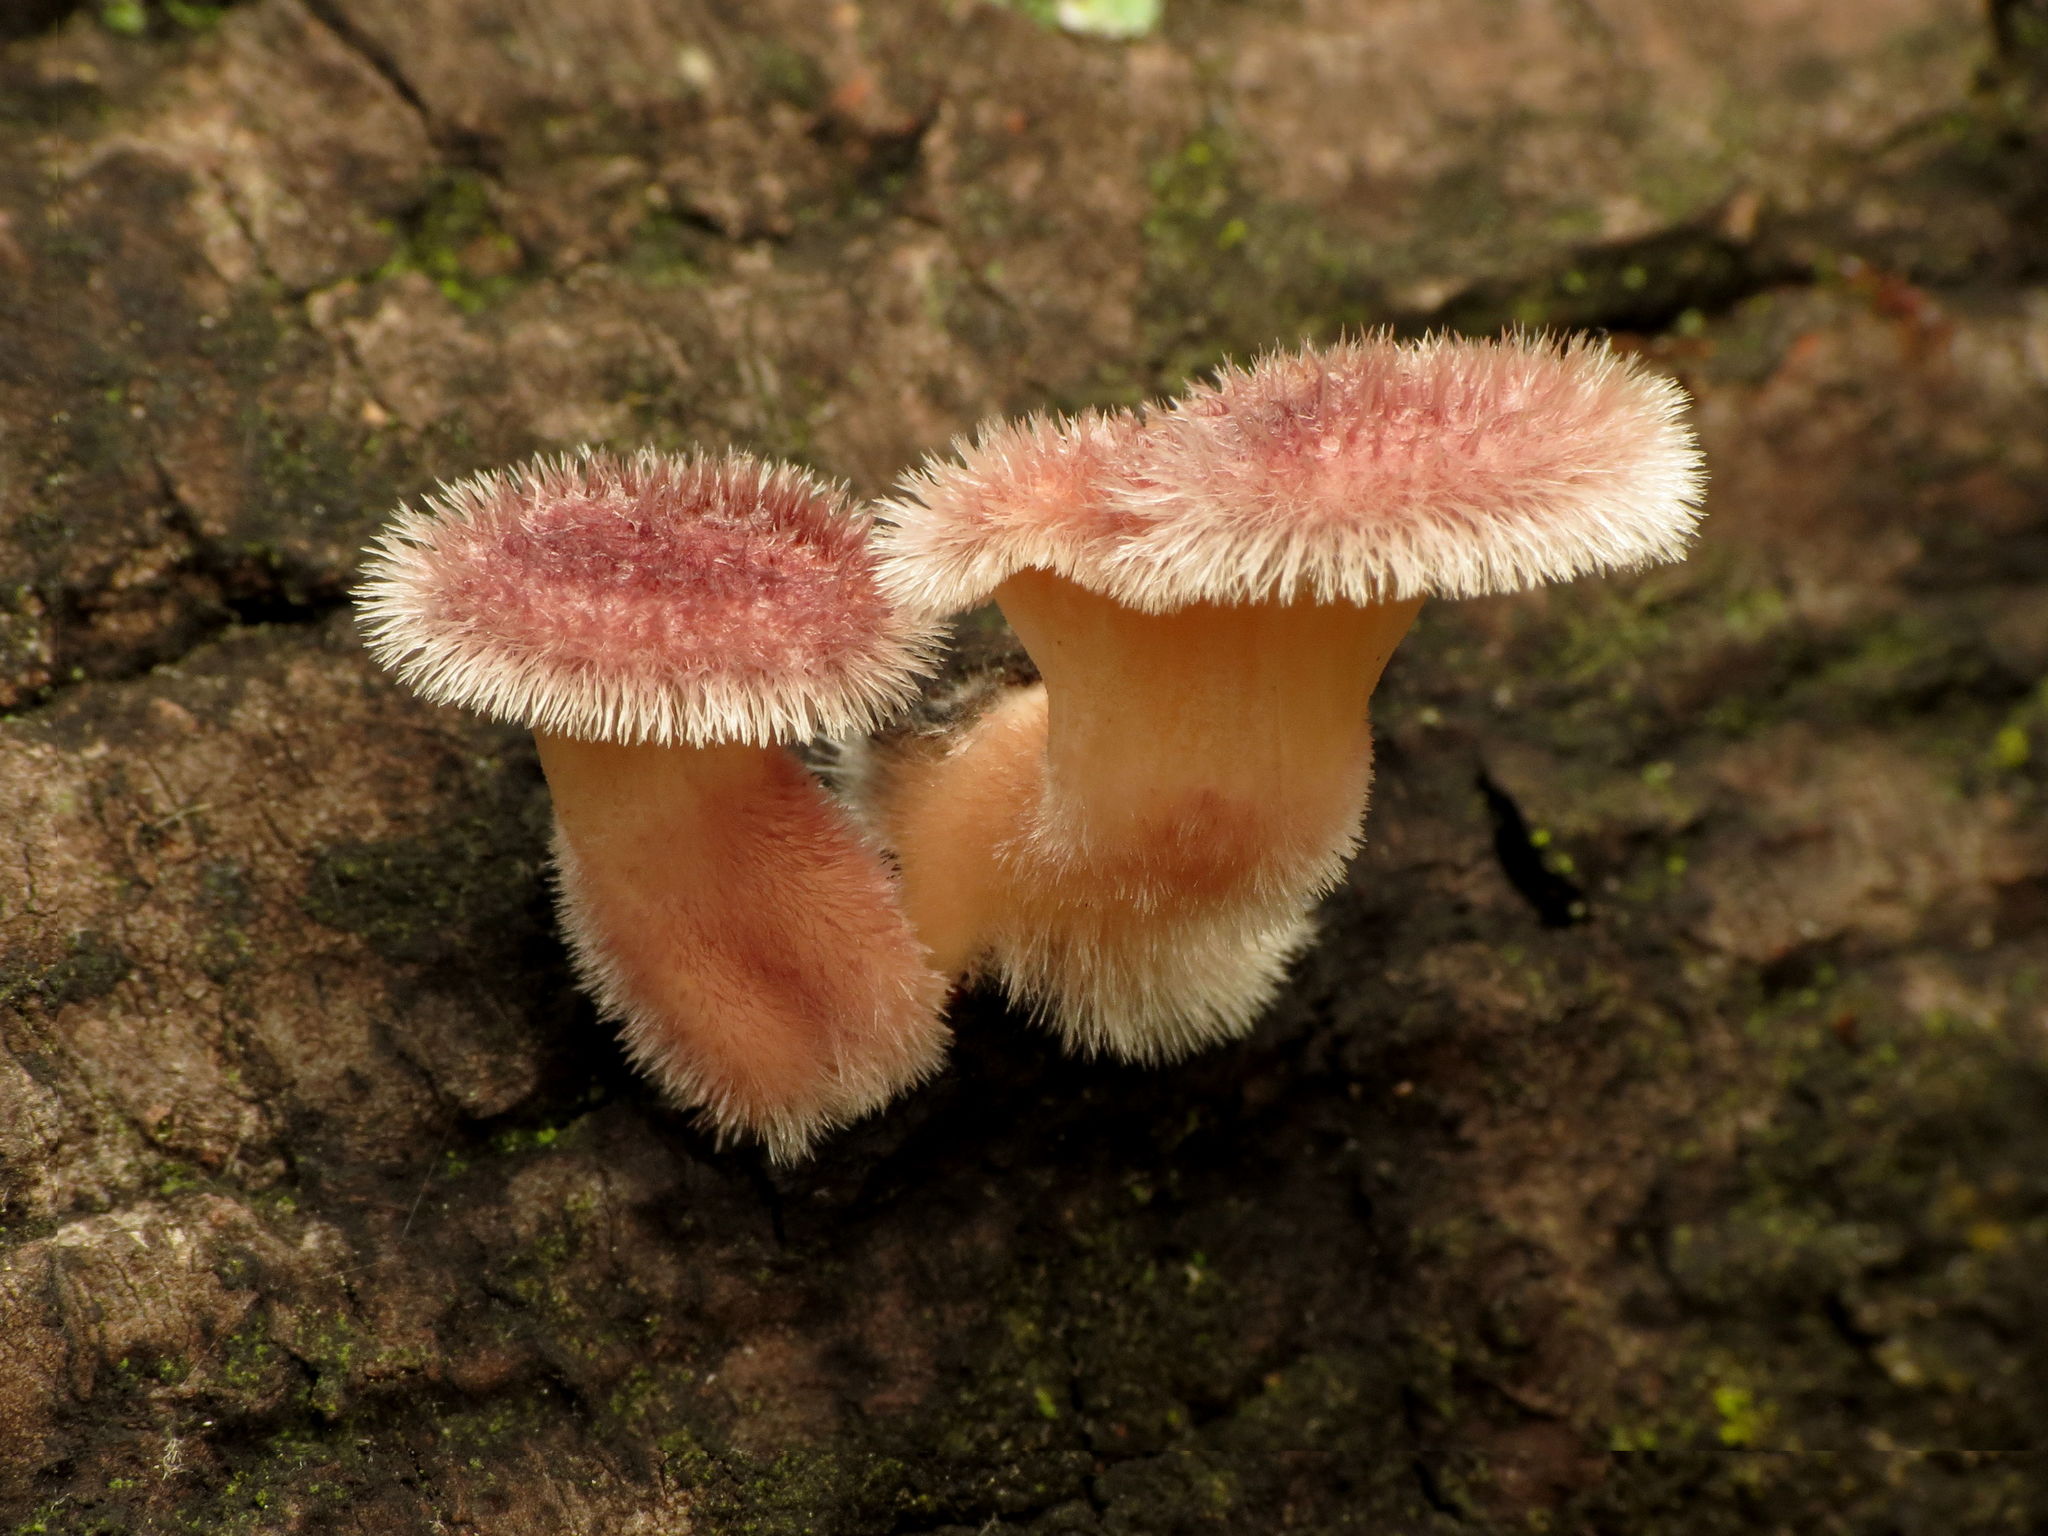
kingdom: Fungi
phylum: Basidiomycota
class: Agaricomycetes
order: Polyporales
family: Panaceae
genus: Panus
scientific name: Panus neostrigosus
